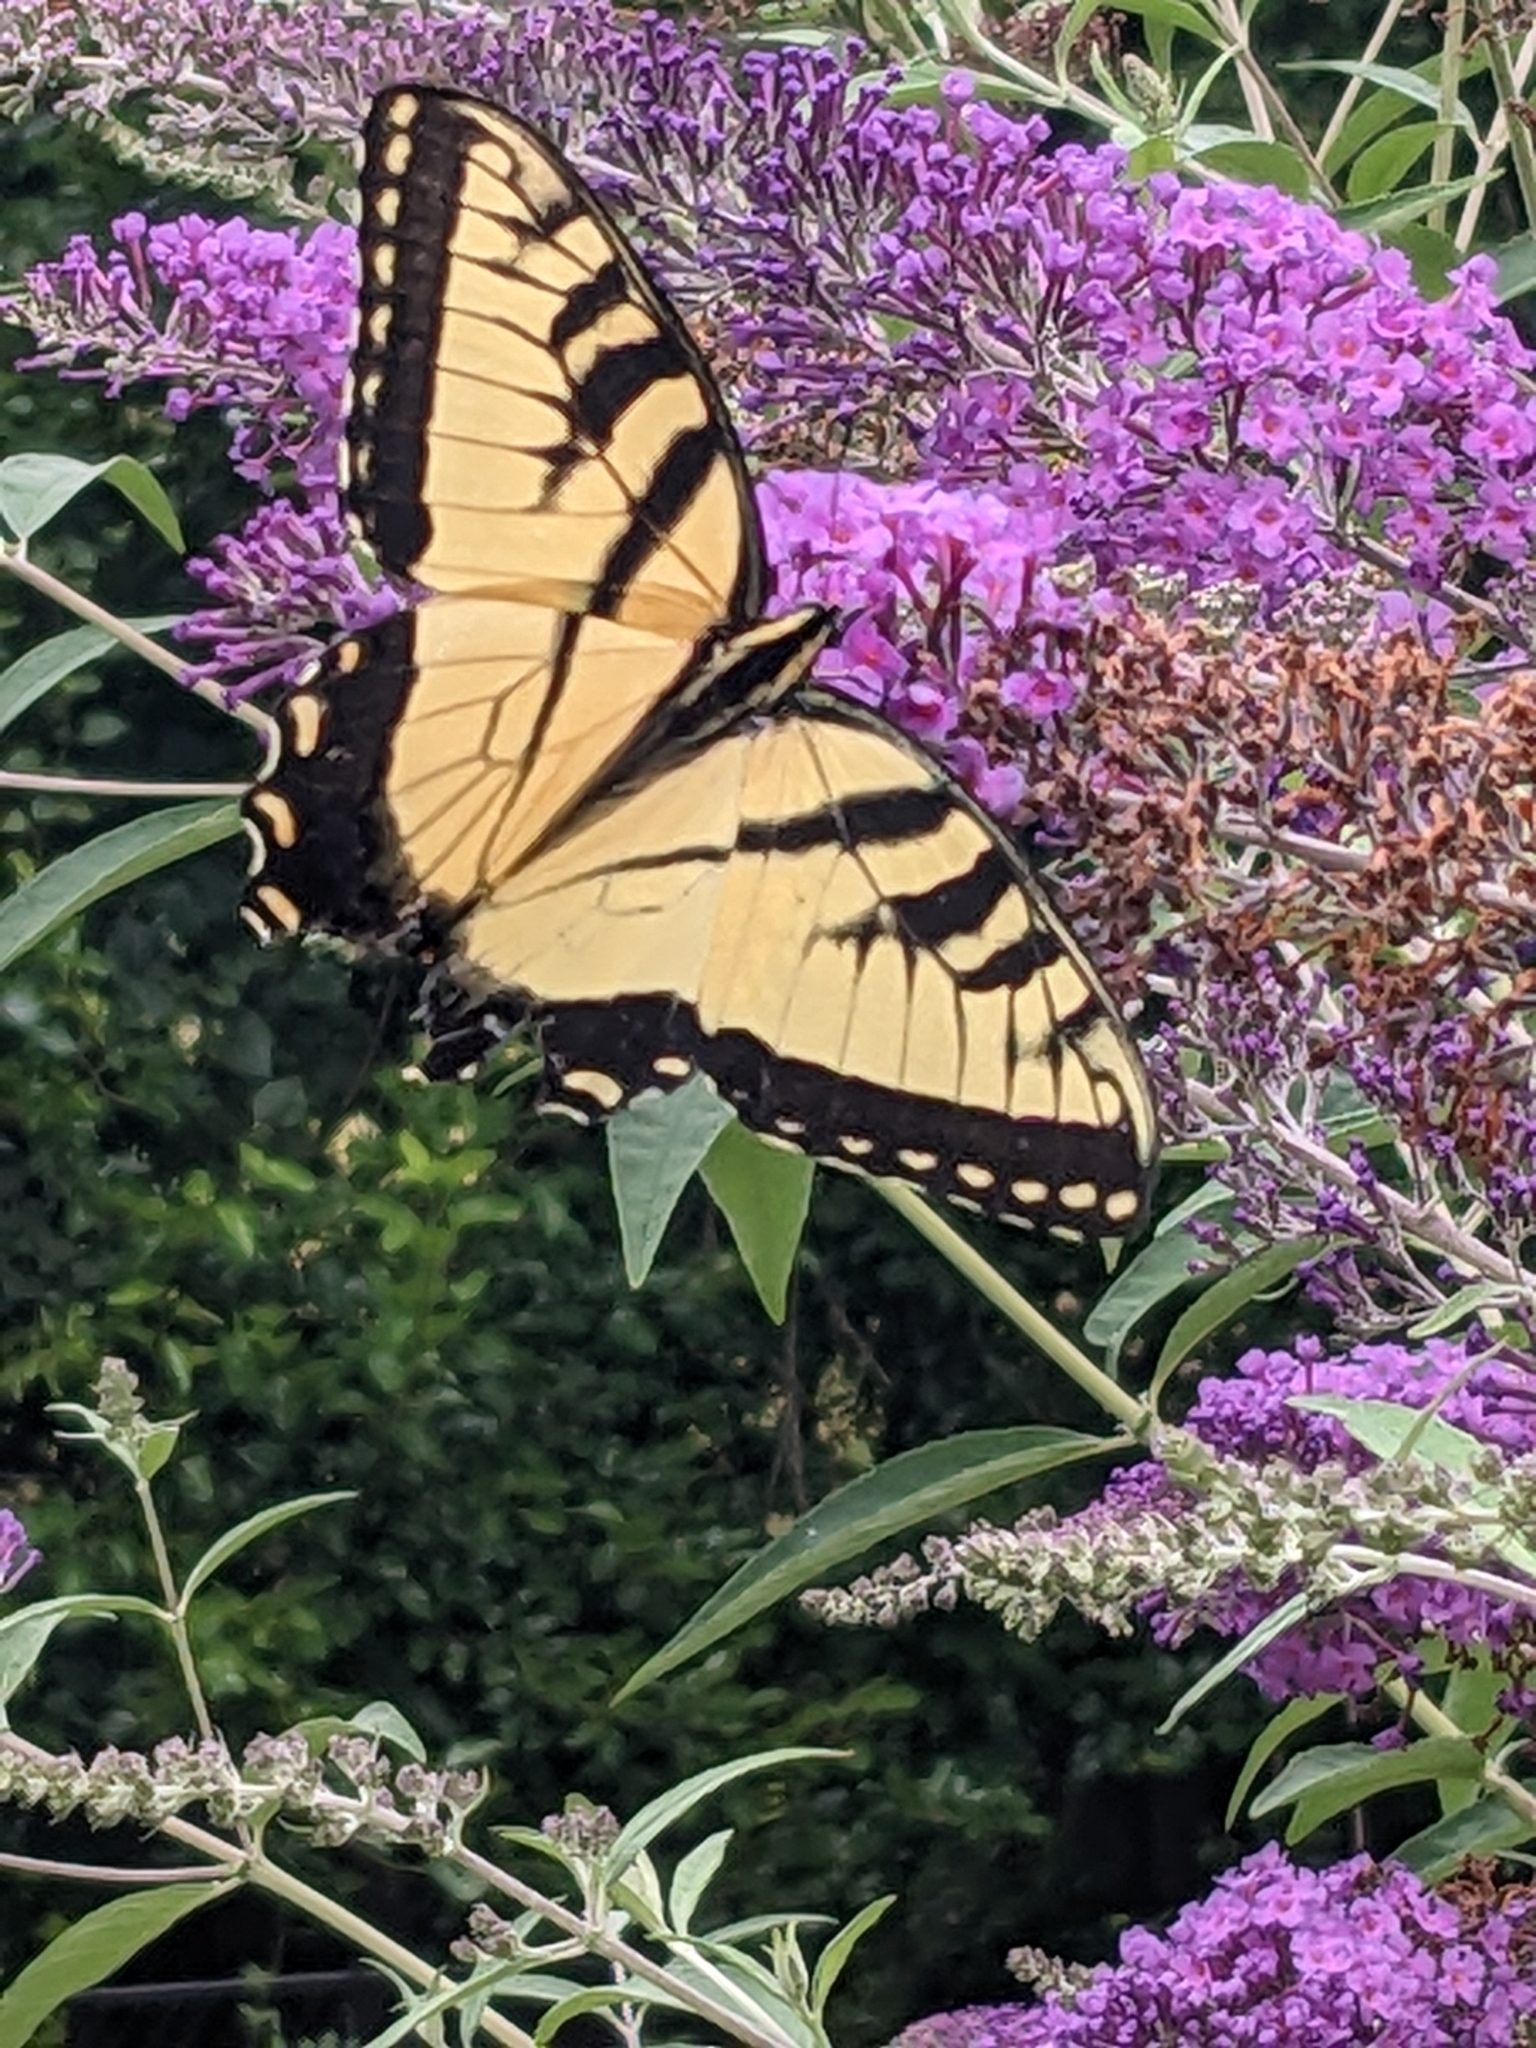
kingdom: Animalia
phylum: Arthropoda
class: Insecta
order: Lepidoptera
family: Papilionidae
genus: Papilio
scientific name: Papilio glaucus
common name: Tiger swallowtail
